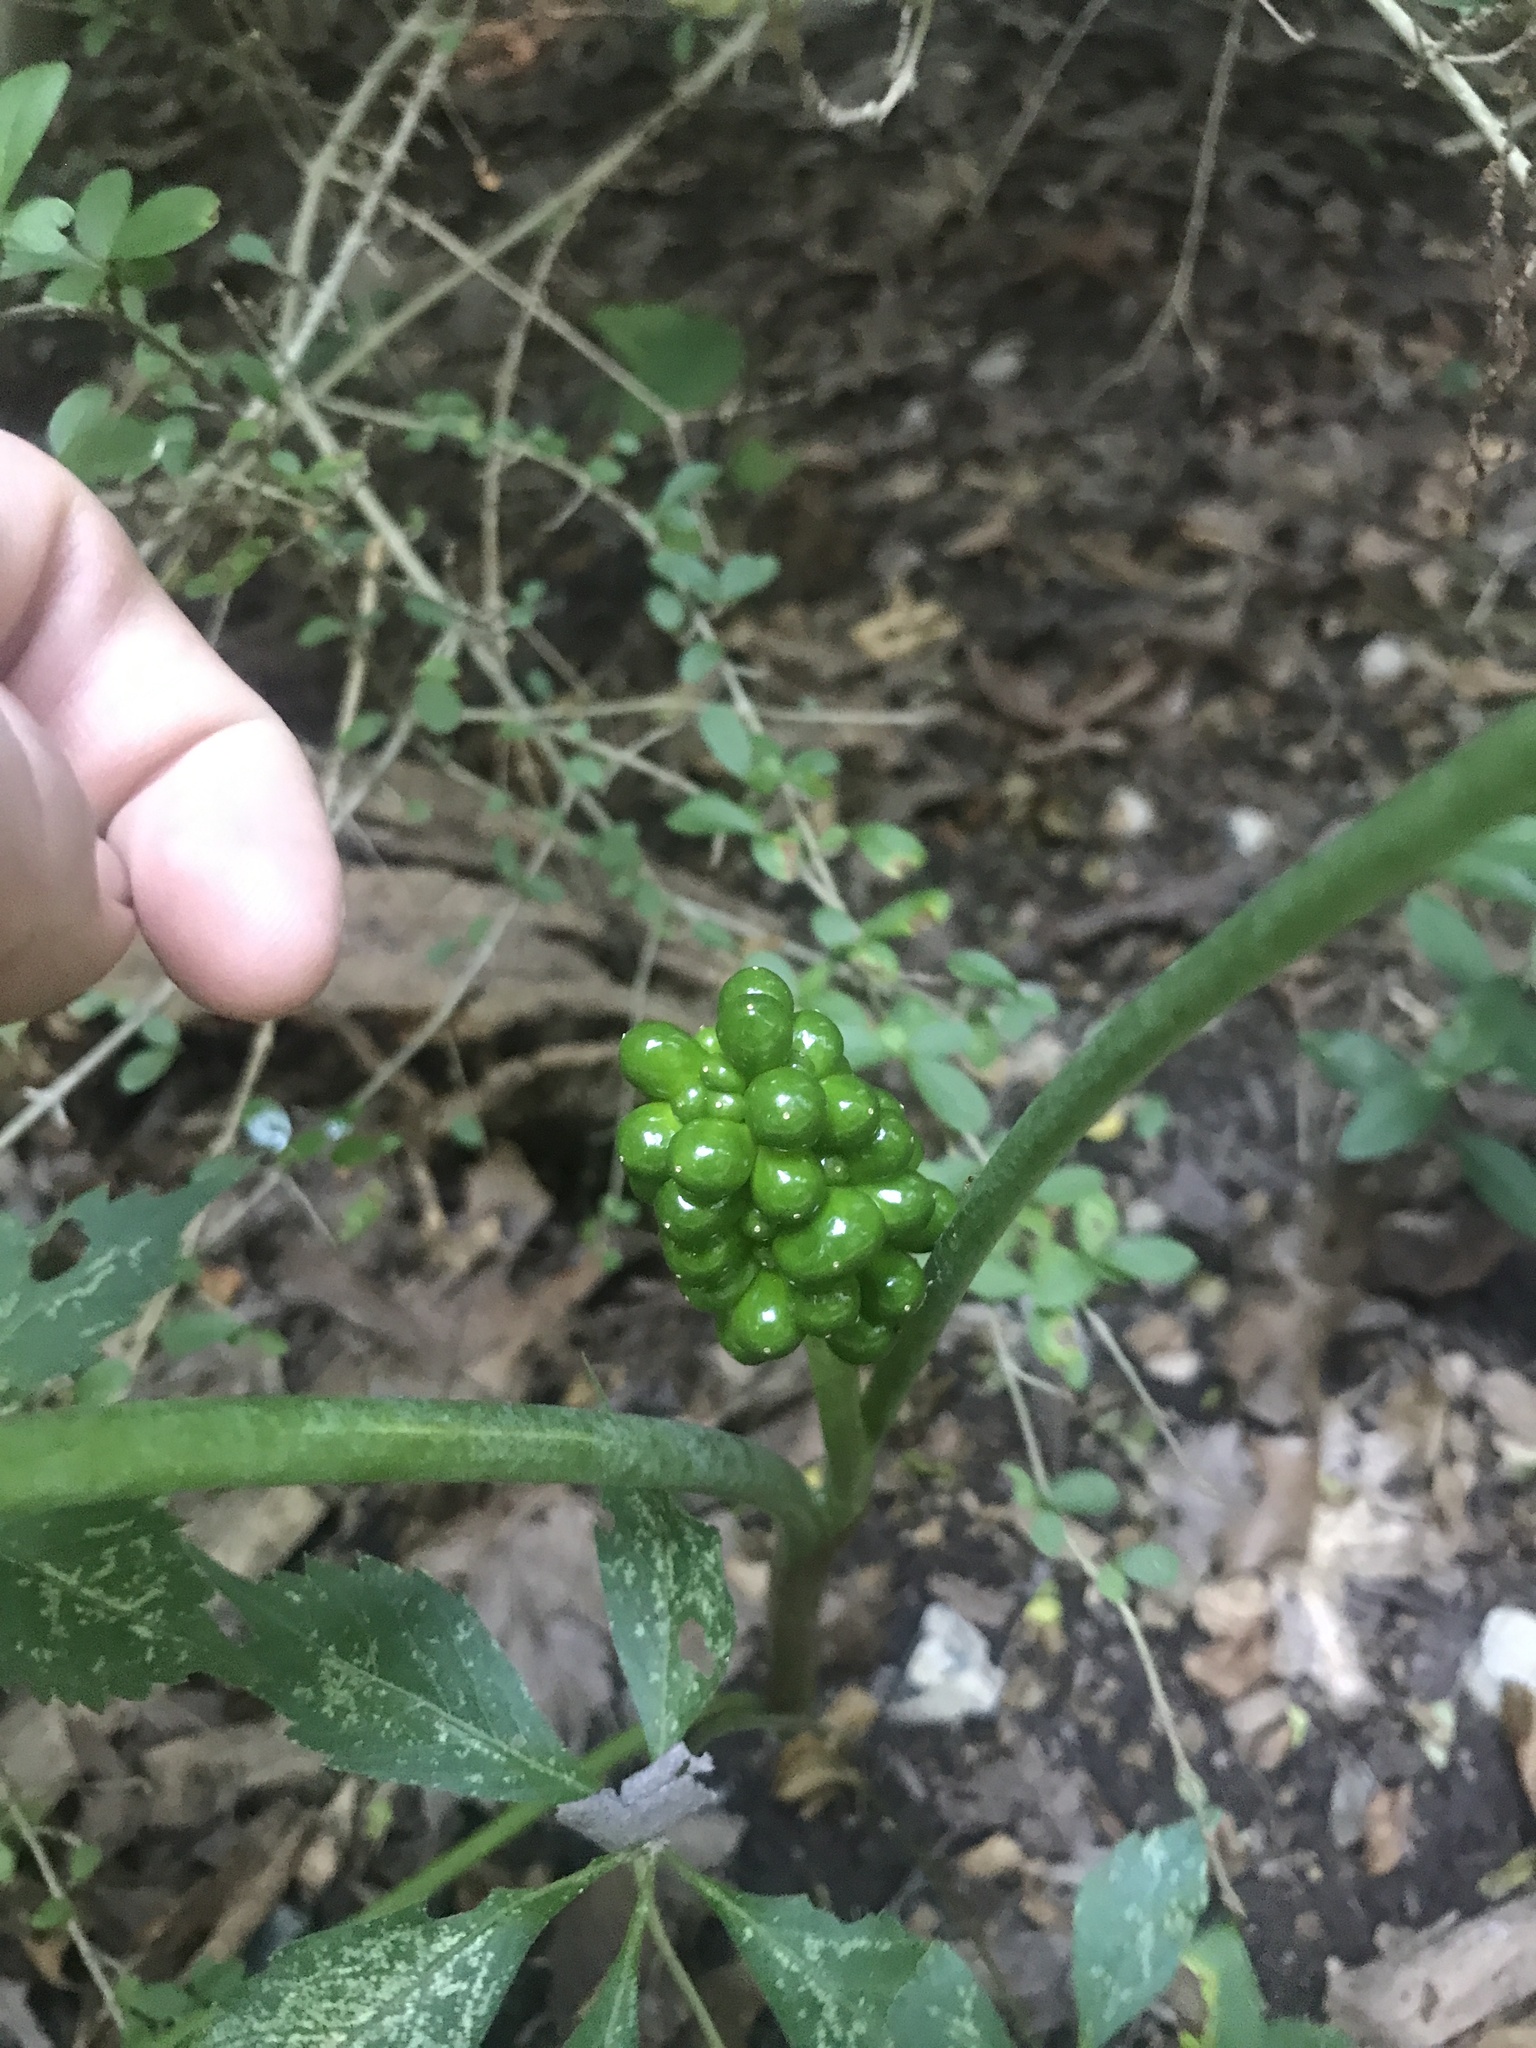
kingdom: Plantae
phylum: Tracheophyta
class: Liliopsida
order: Alismatales
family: Araceae
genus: Arisaema
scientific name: Arisaema triphyllum
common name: Jack-in-the-pulpit
